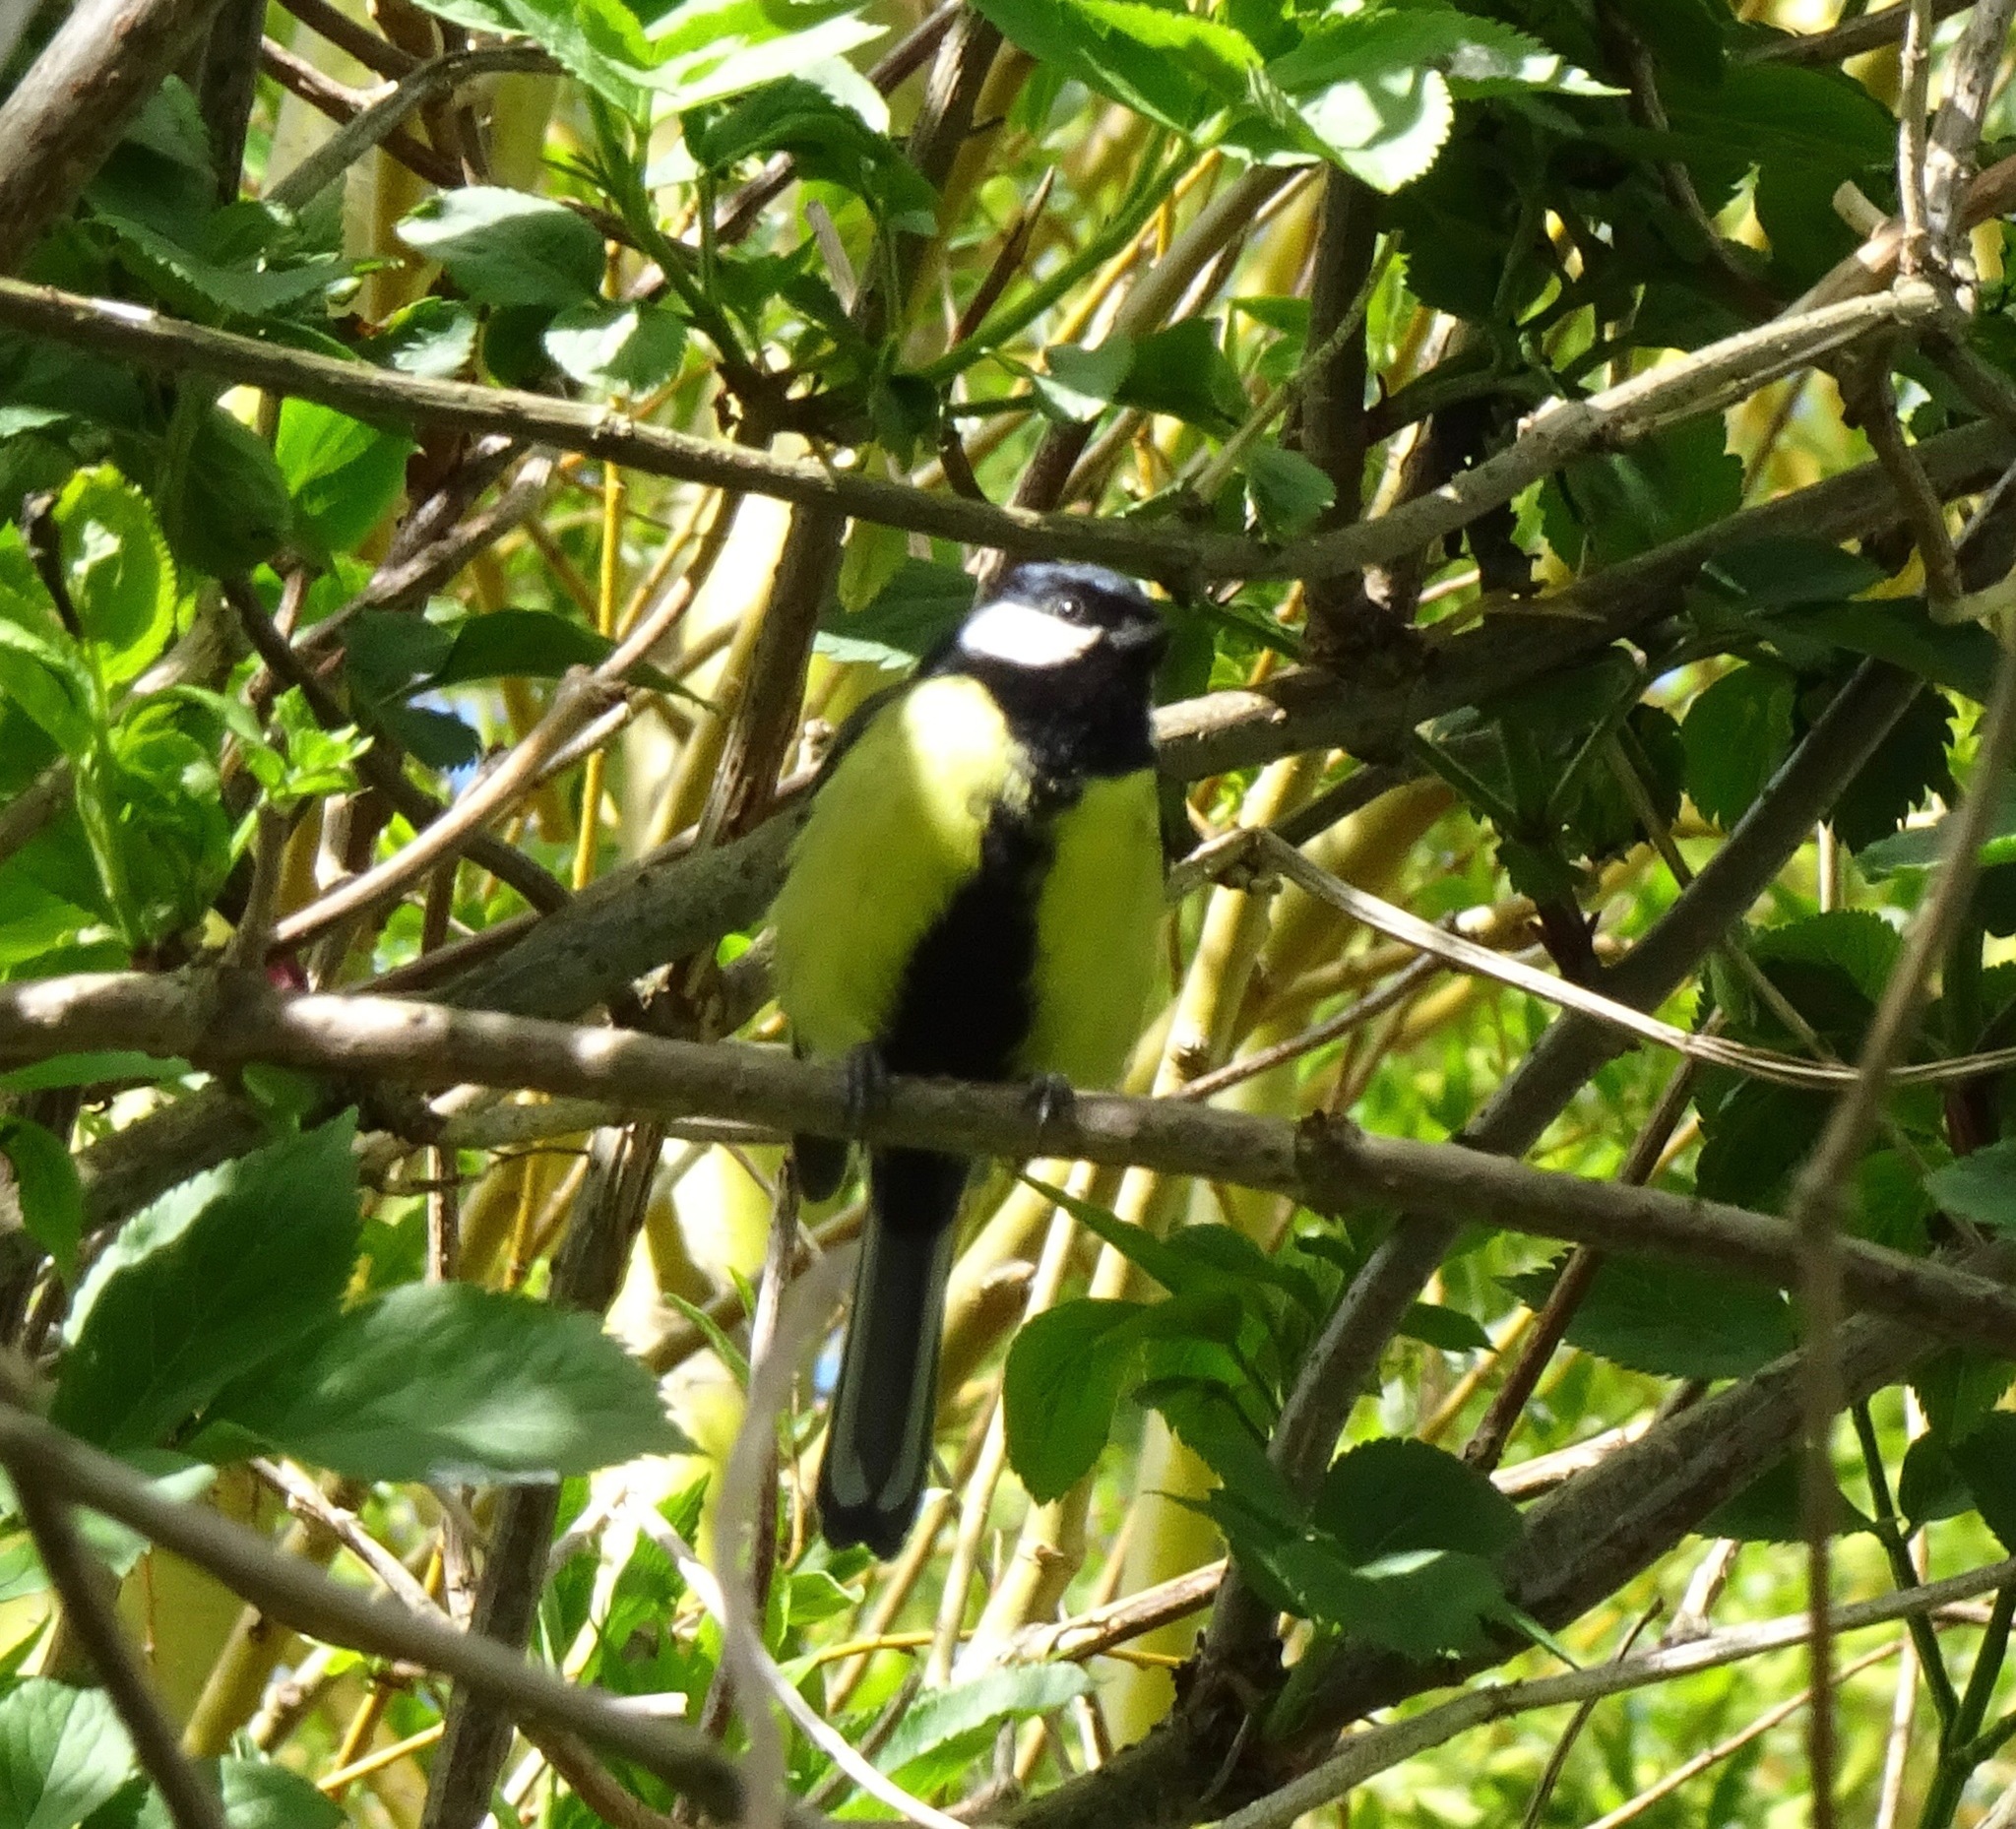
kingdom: Animalia
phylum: Chordata
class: Aves
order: Passeriformes
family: Paridae
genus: Parus
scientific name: Parus major
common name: Great tit
